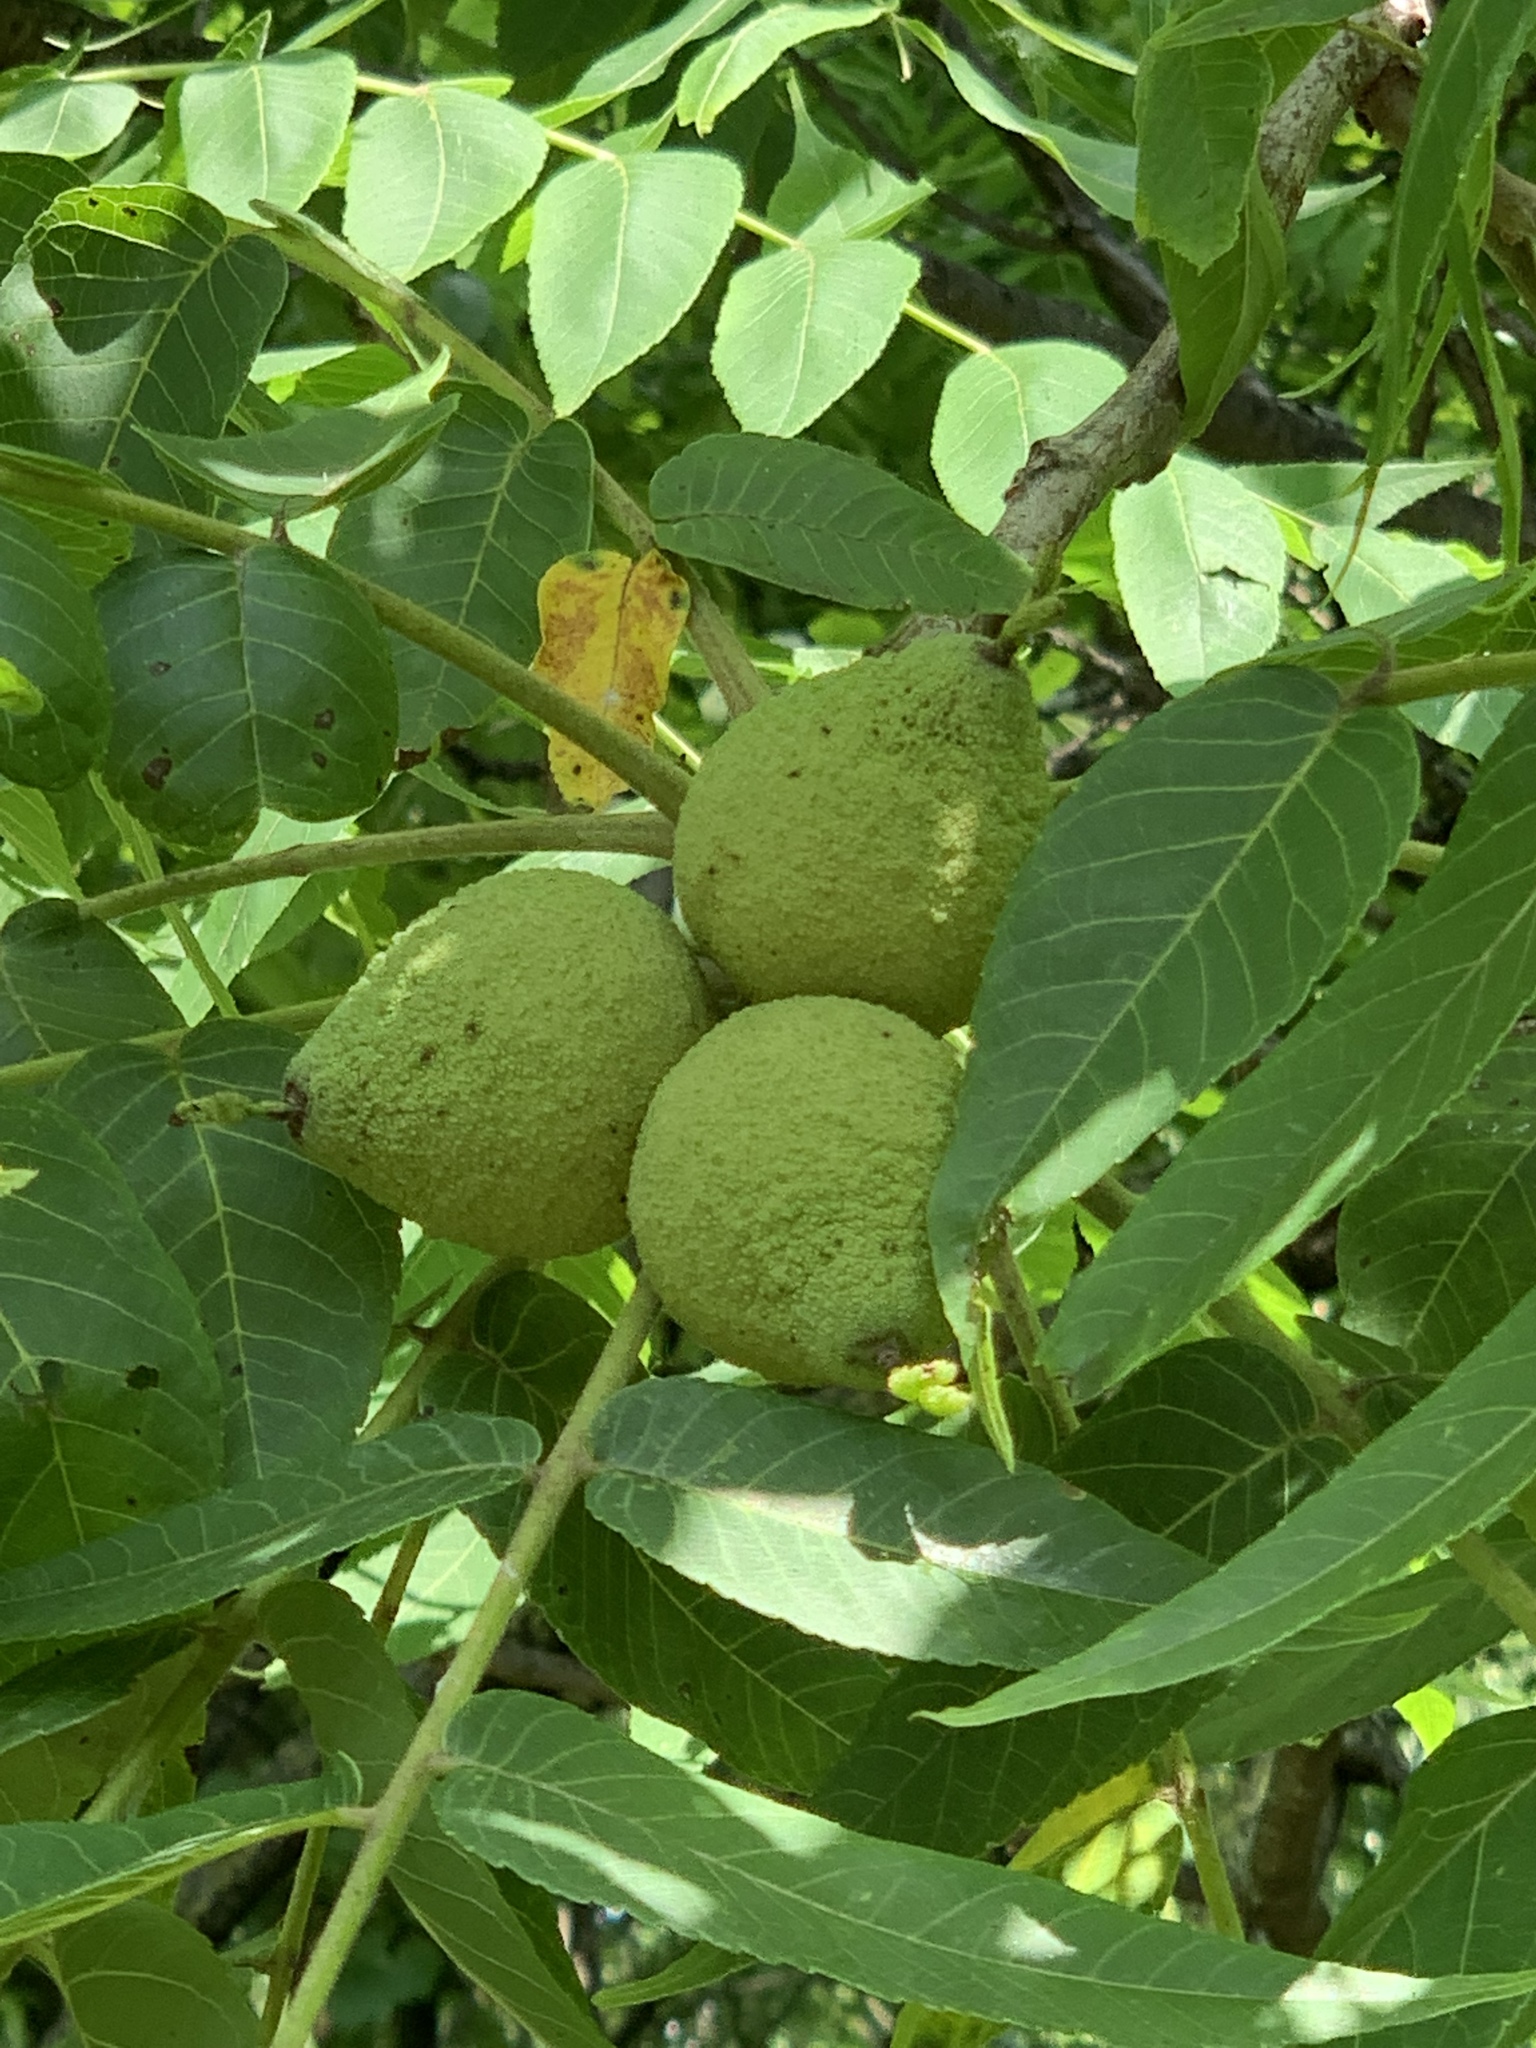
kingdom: Plantae
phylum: Tracheophyta
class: Magnoliopsida
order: Fagales
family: Juglandaceae
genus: Juglans
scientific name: Juglans nigra
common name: Black walnut
